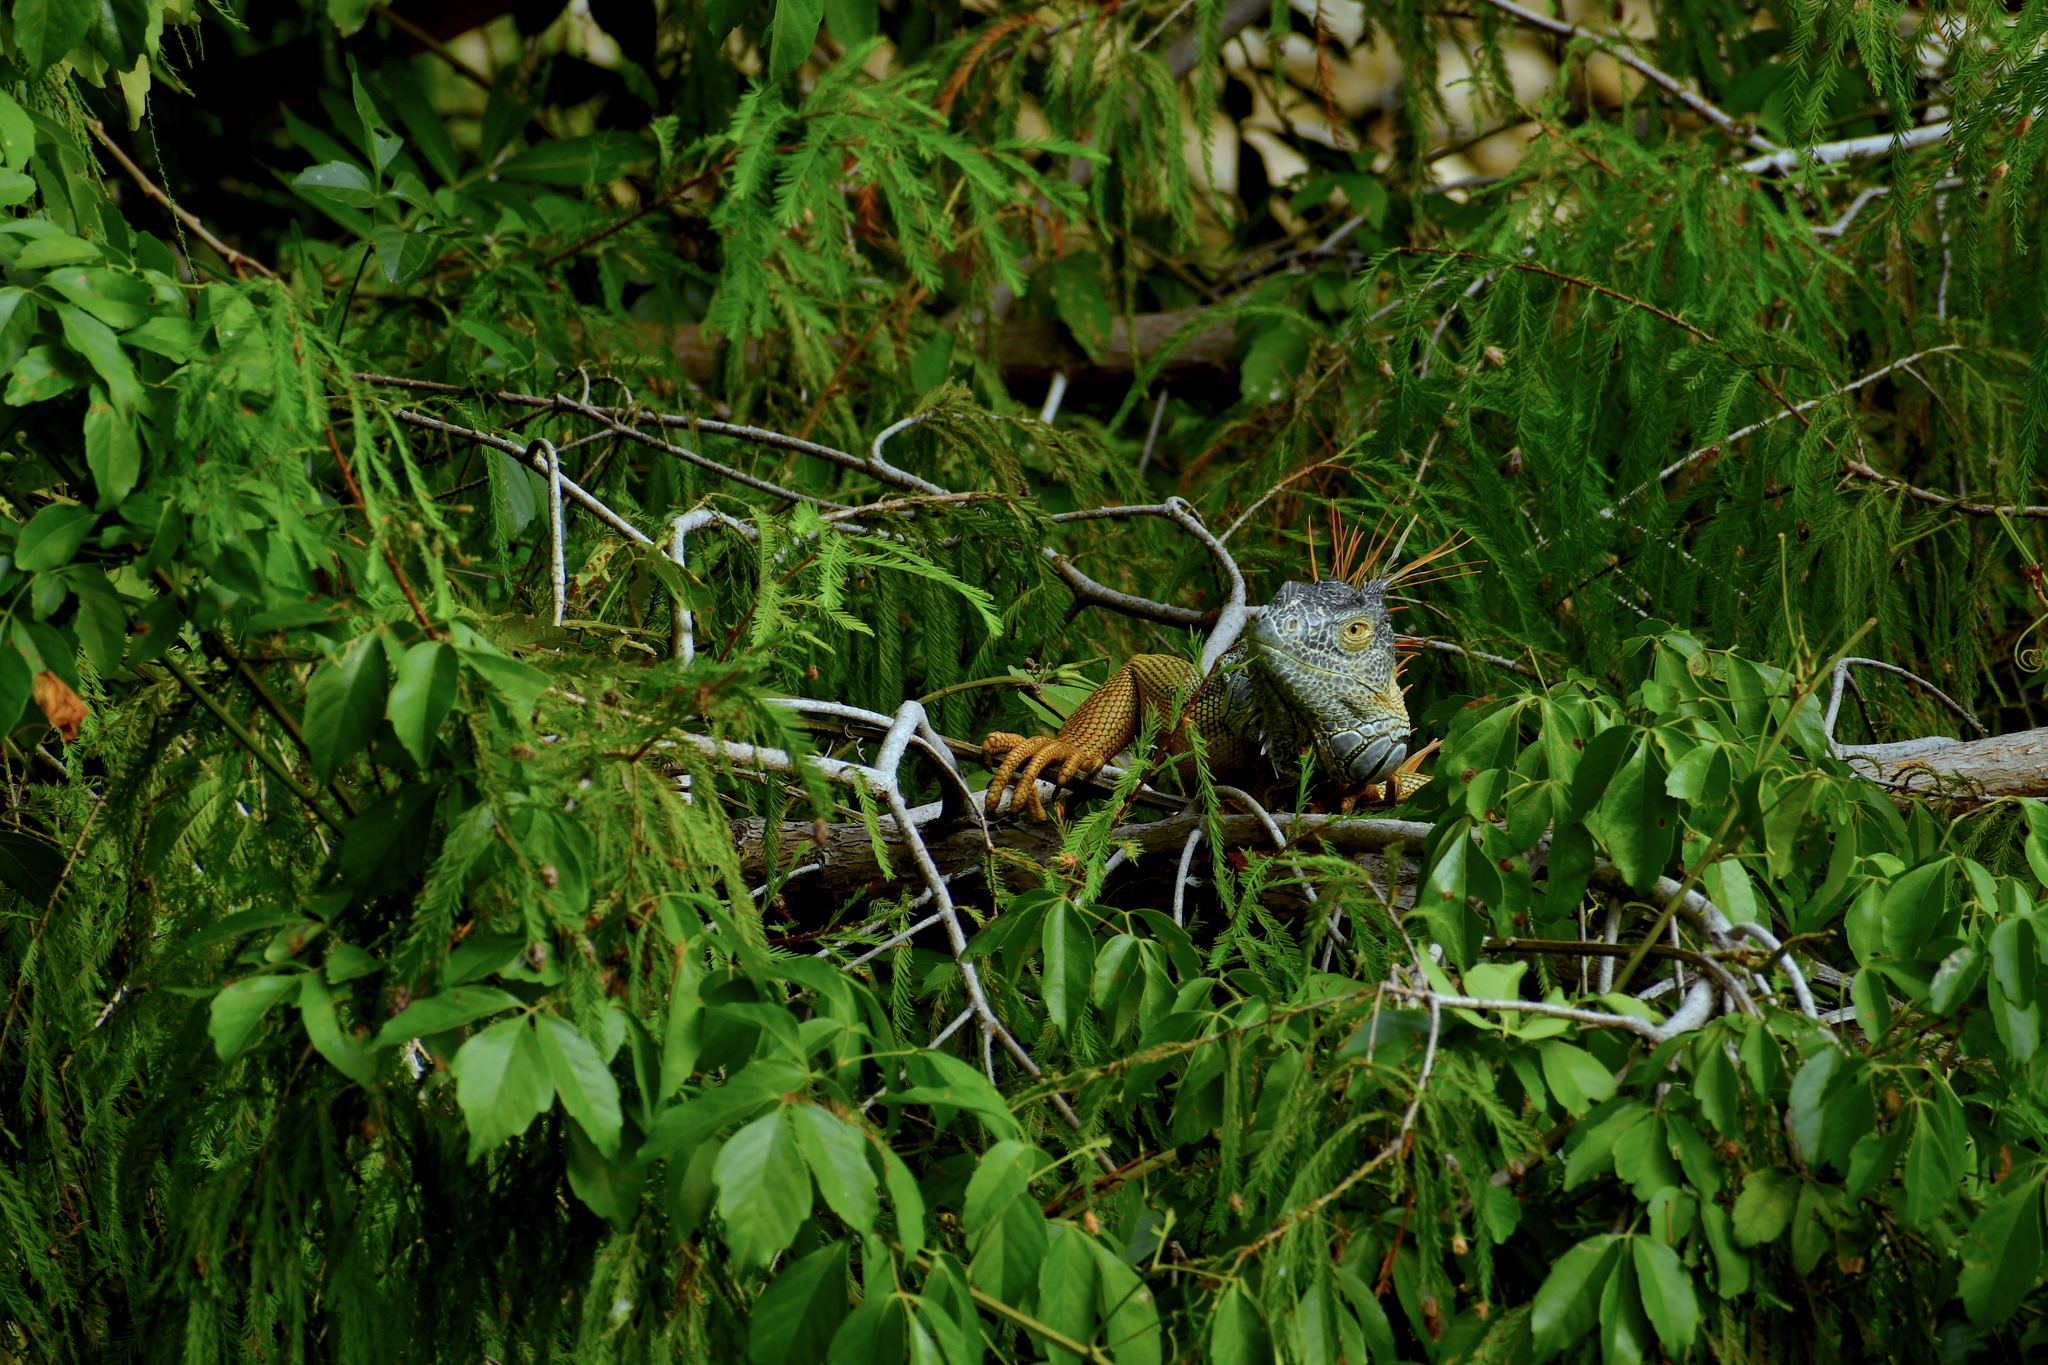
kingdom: Animalia
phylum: Chordata
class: Squamata
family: Iguanidae
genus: Iguana
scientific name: Iguana iguana
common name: Green iguana
